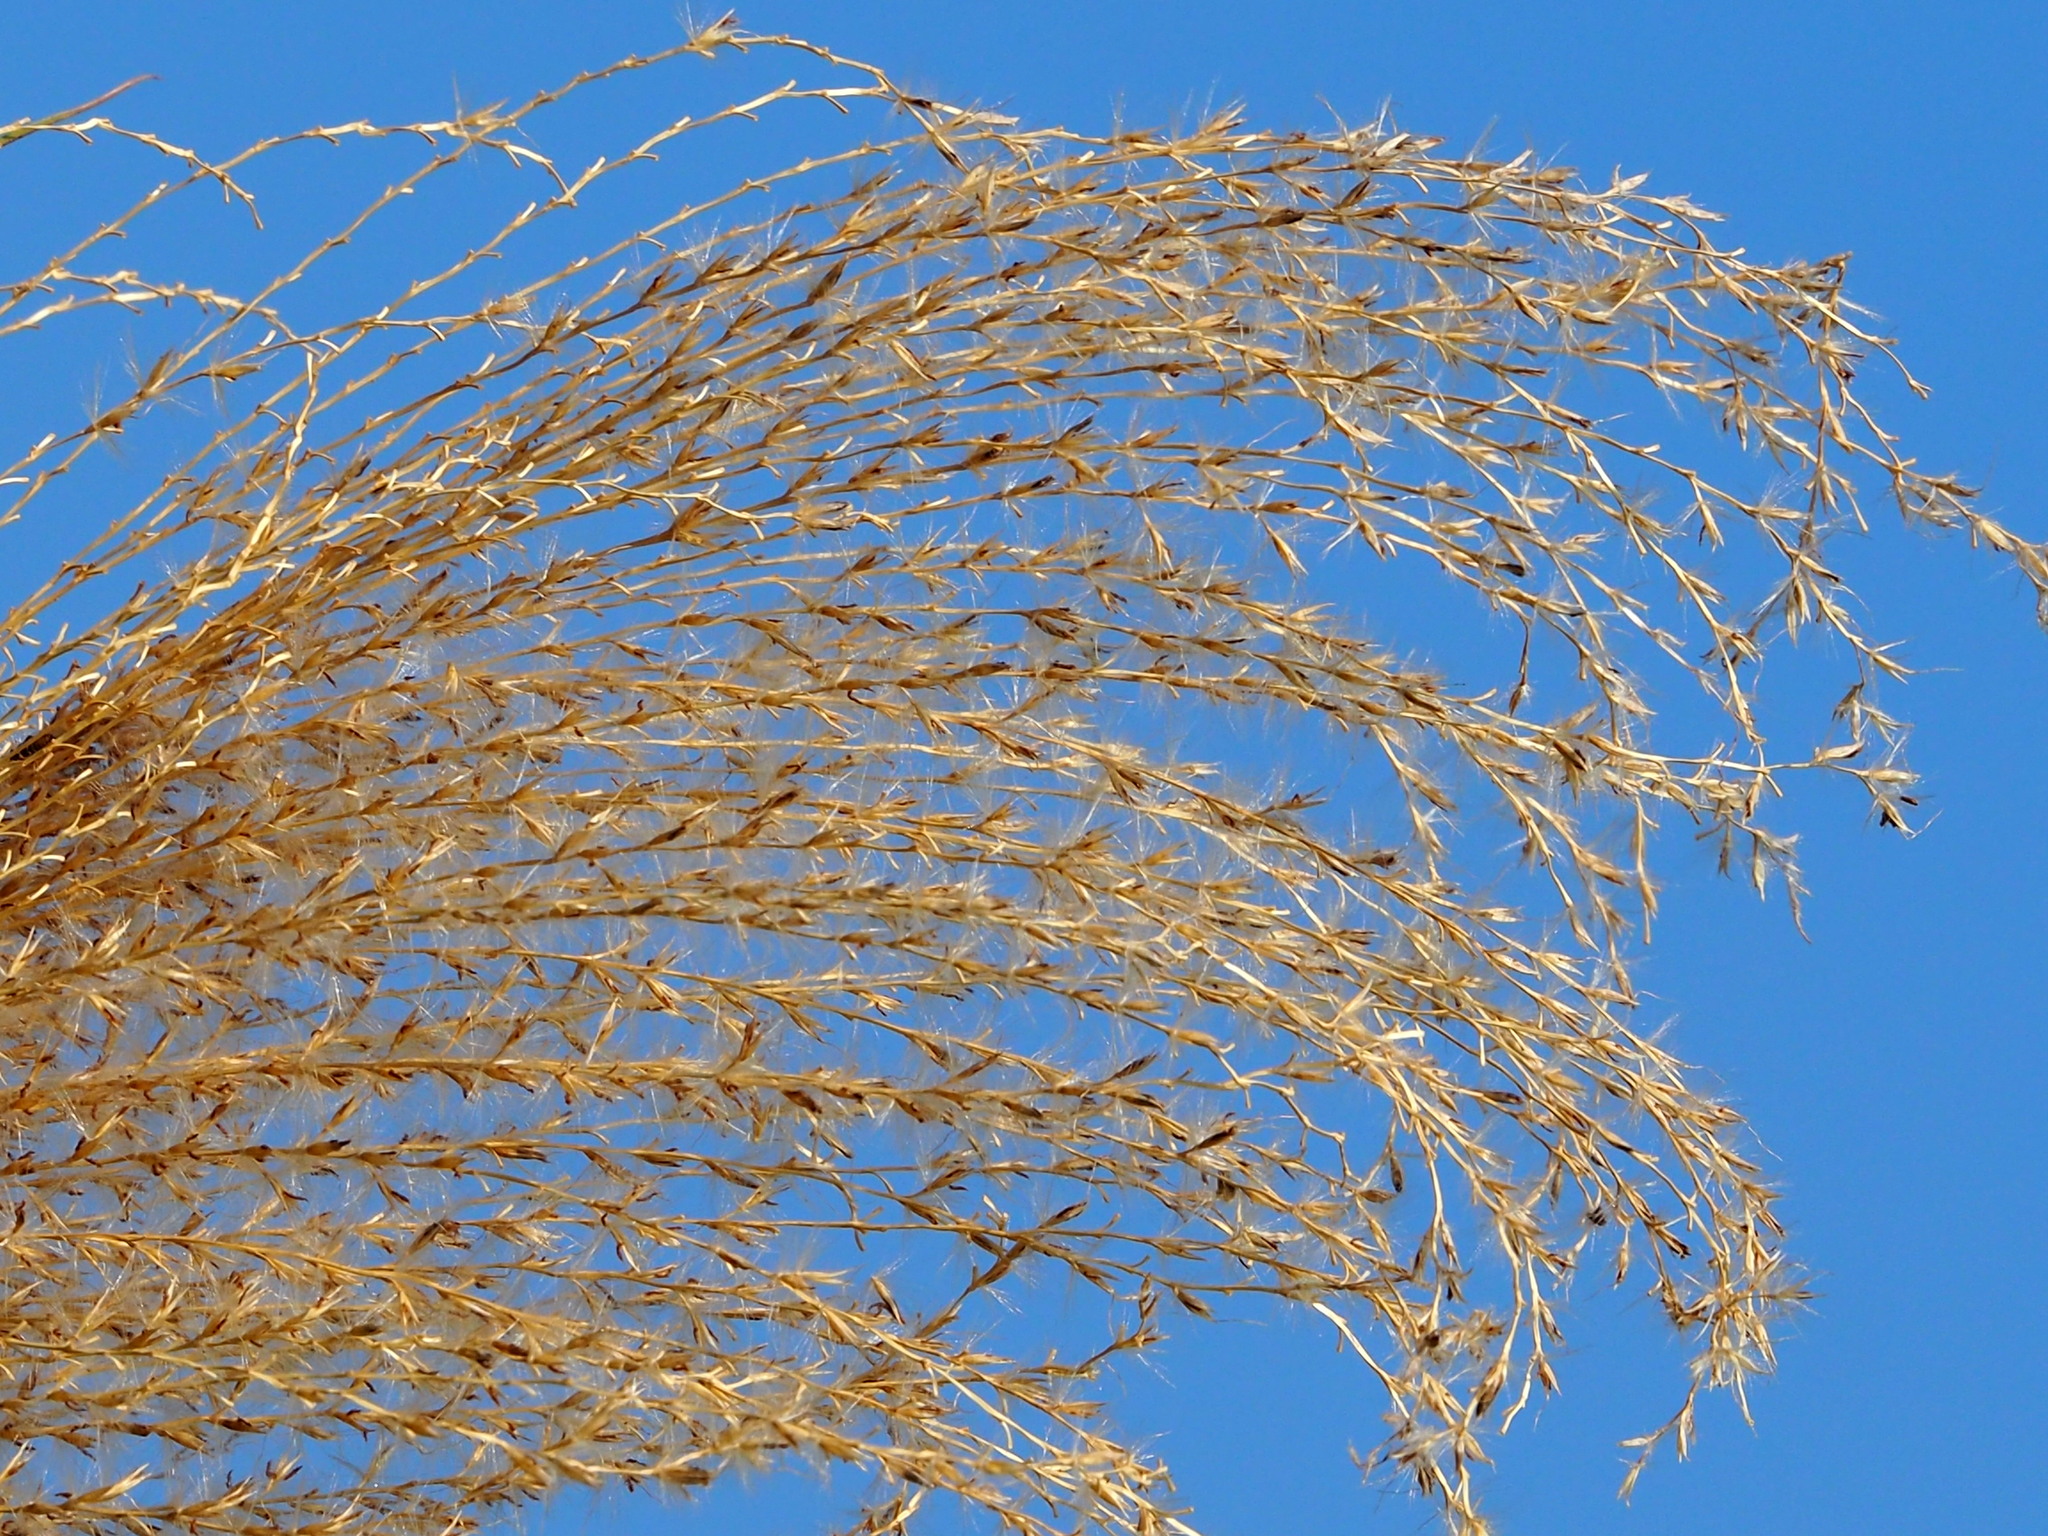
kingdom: Plantae
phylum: Tracheophyta
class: Liliopsida
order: Poales
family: Poaceae
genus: Miscanthus
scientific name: Miscanthus sinensis
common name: Chinese silvergrass
